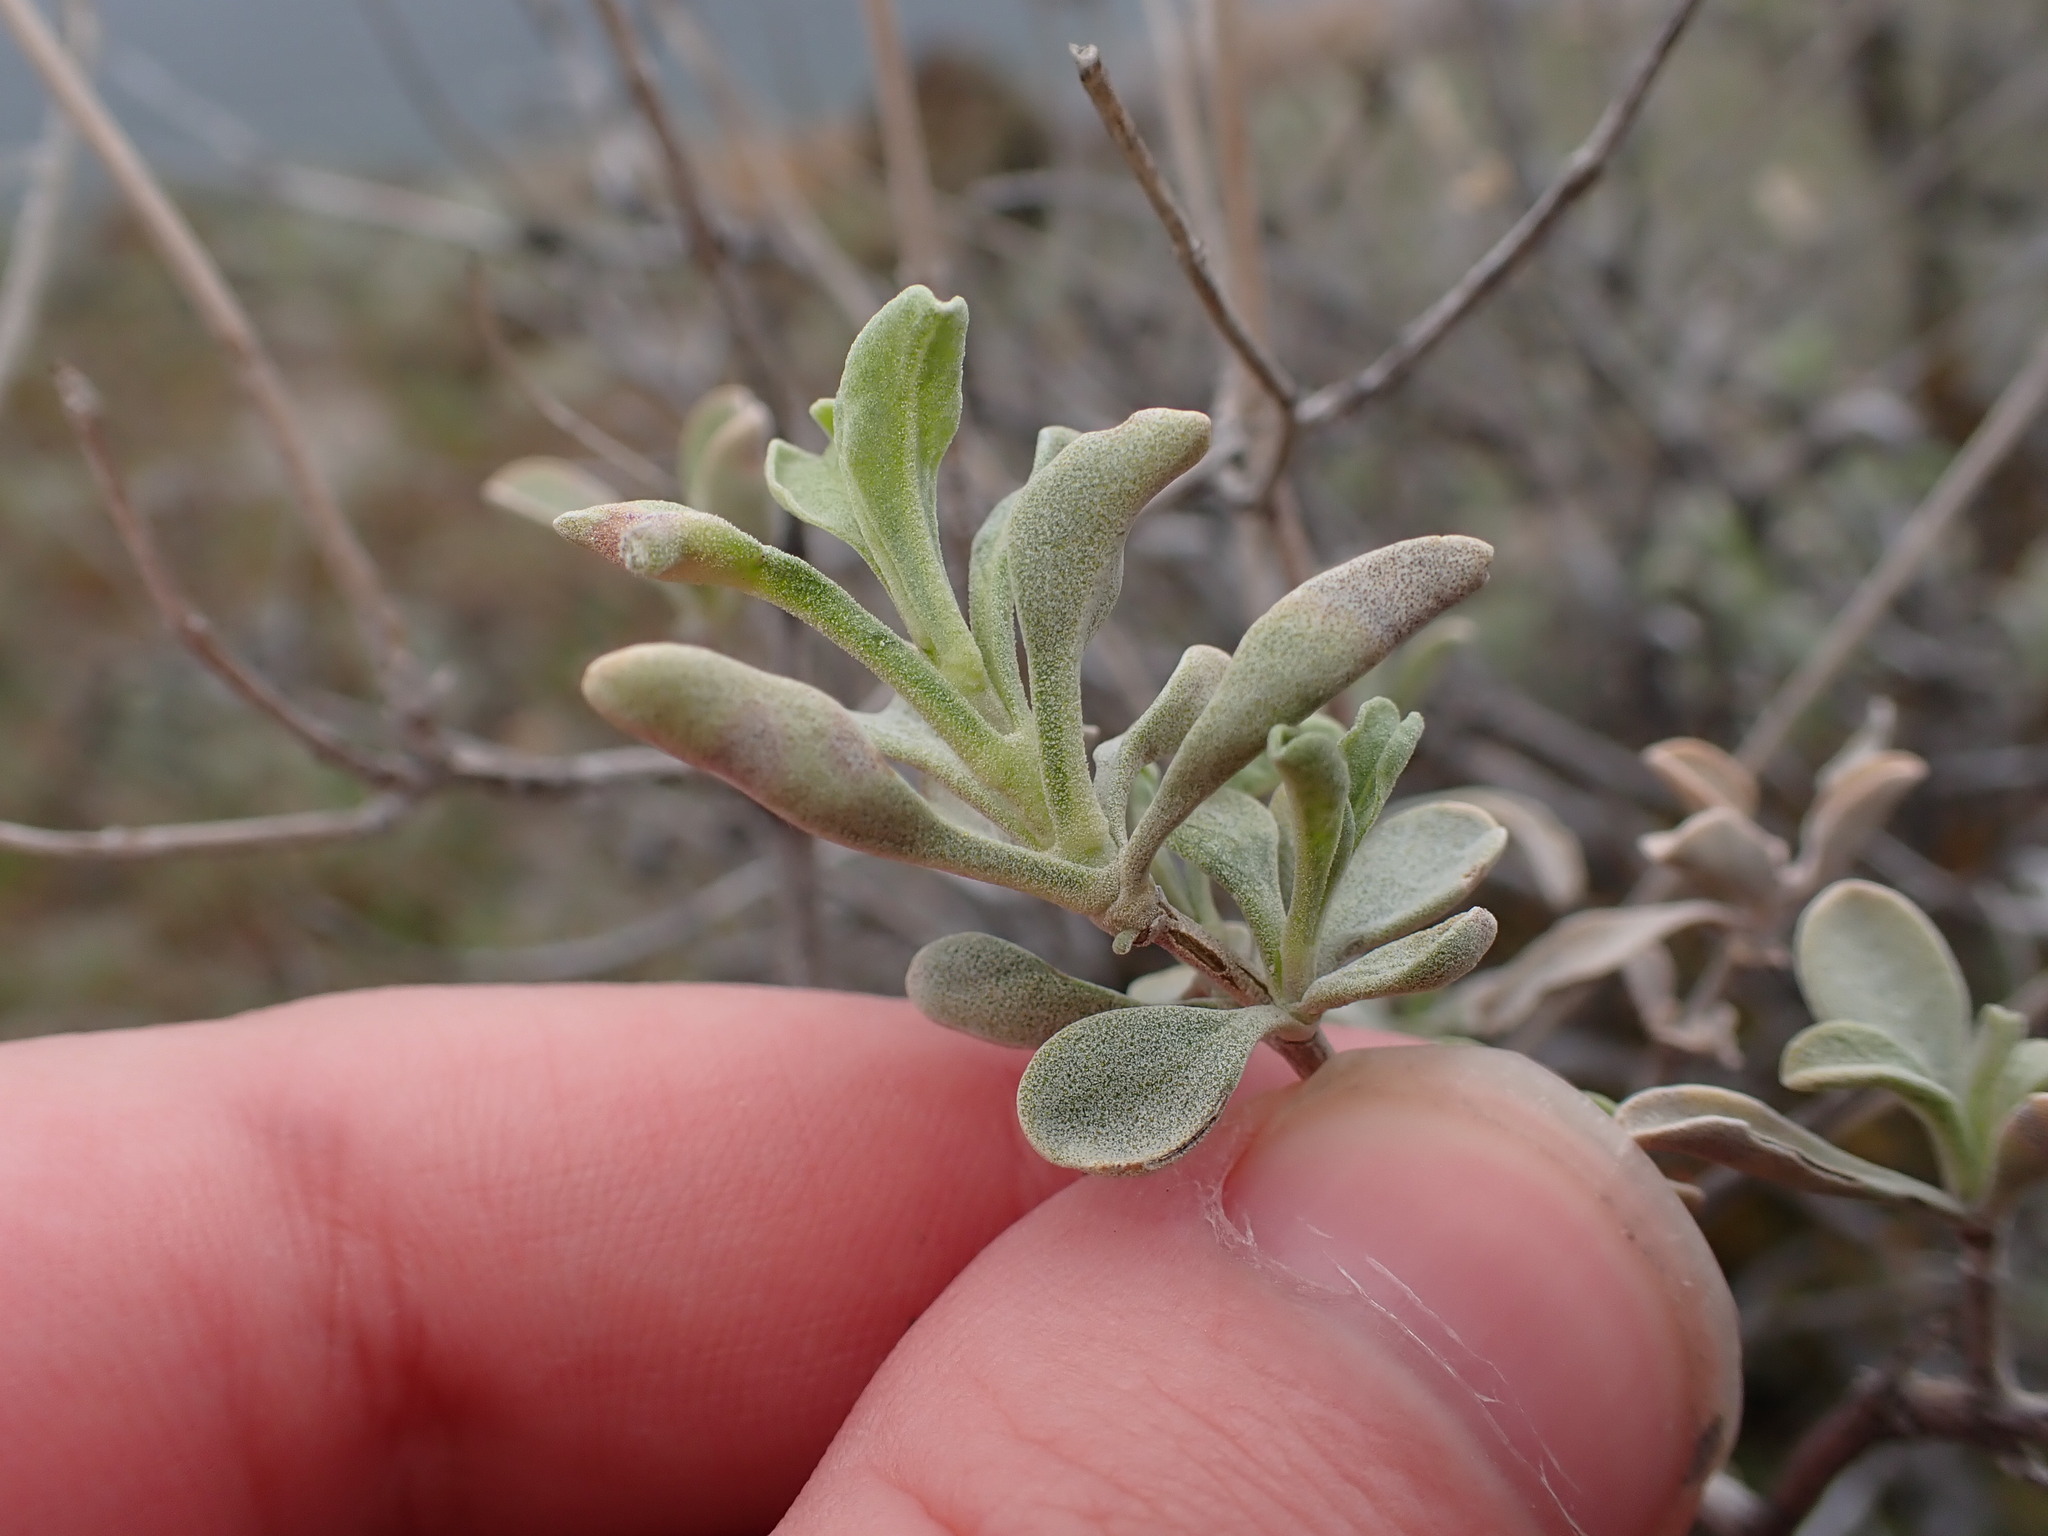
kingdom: Plantae
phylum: Tracheophyta
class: Magnoliopsida
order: Lamiales
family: Lamiaceae
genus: Salvia
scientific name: Salvia dorrii
